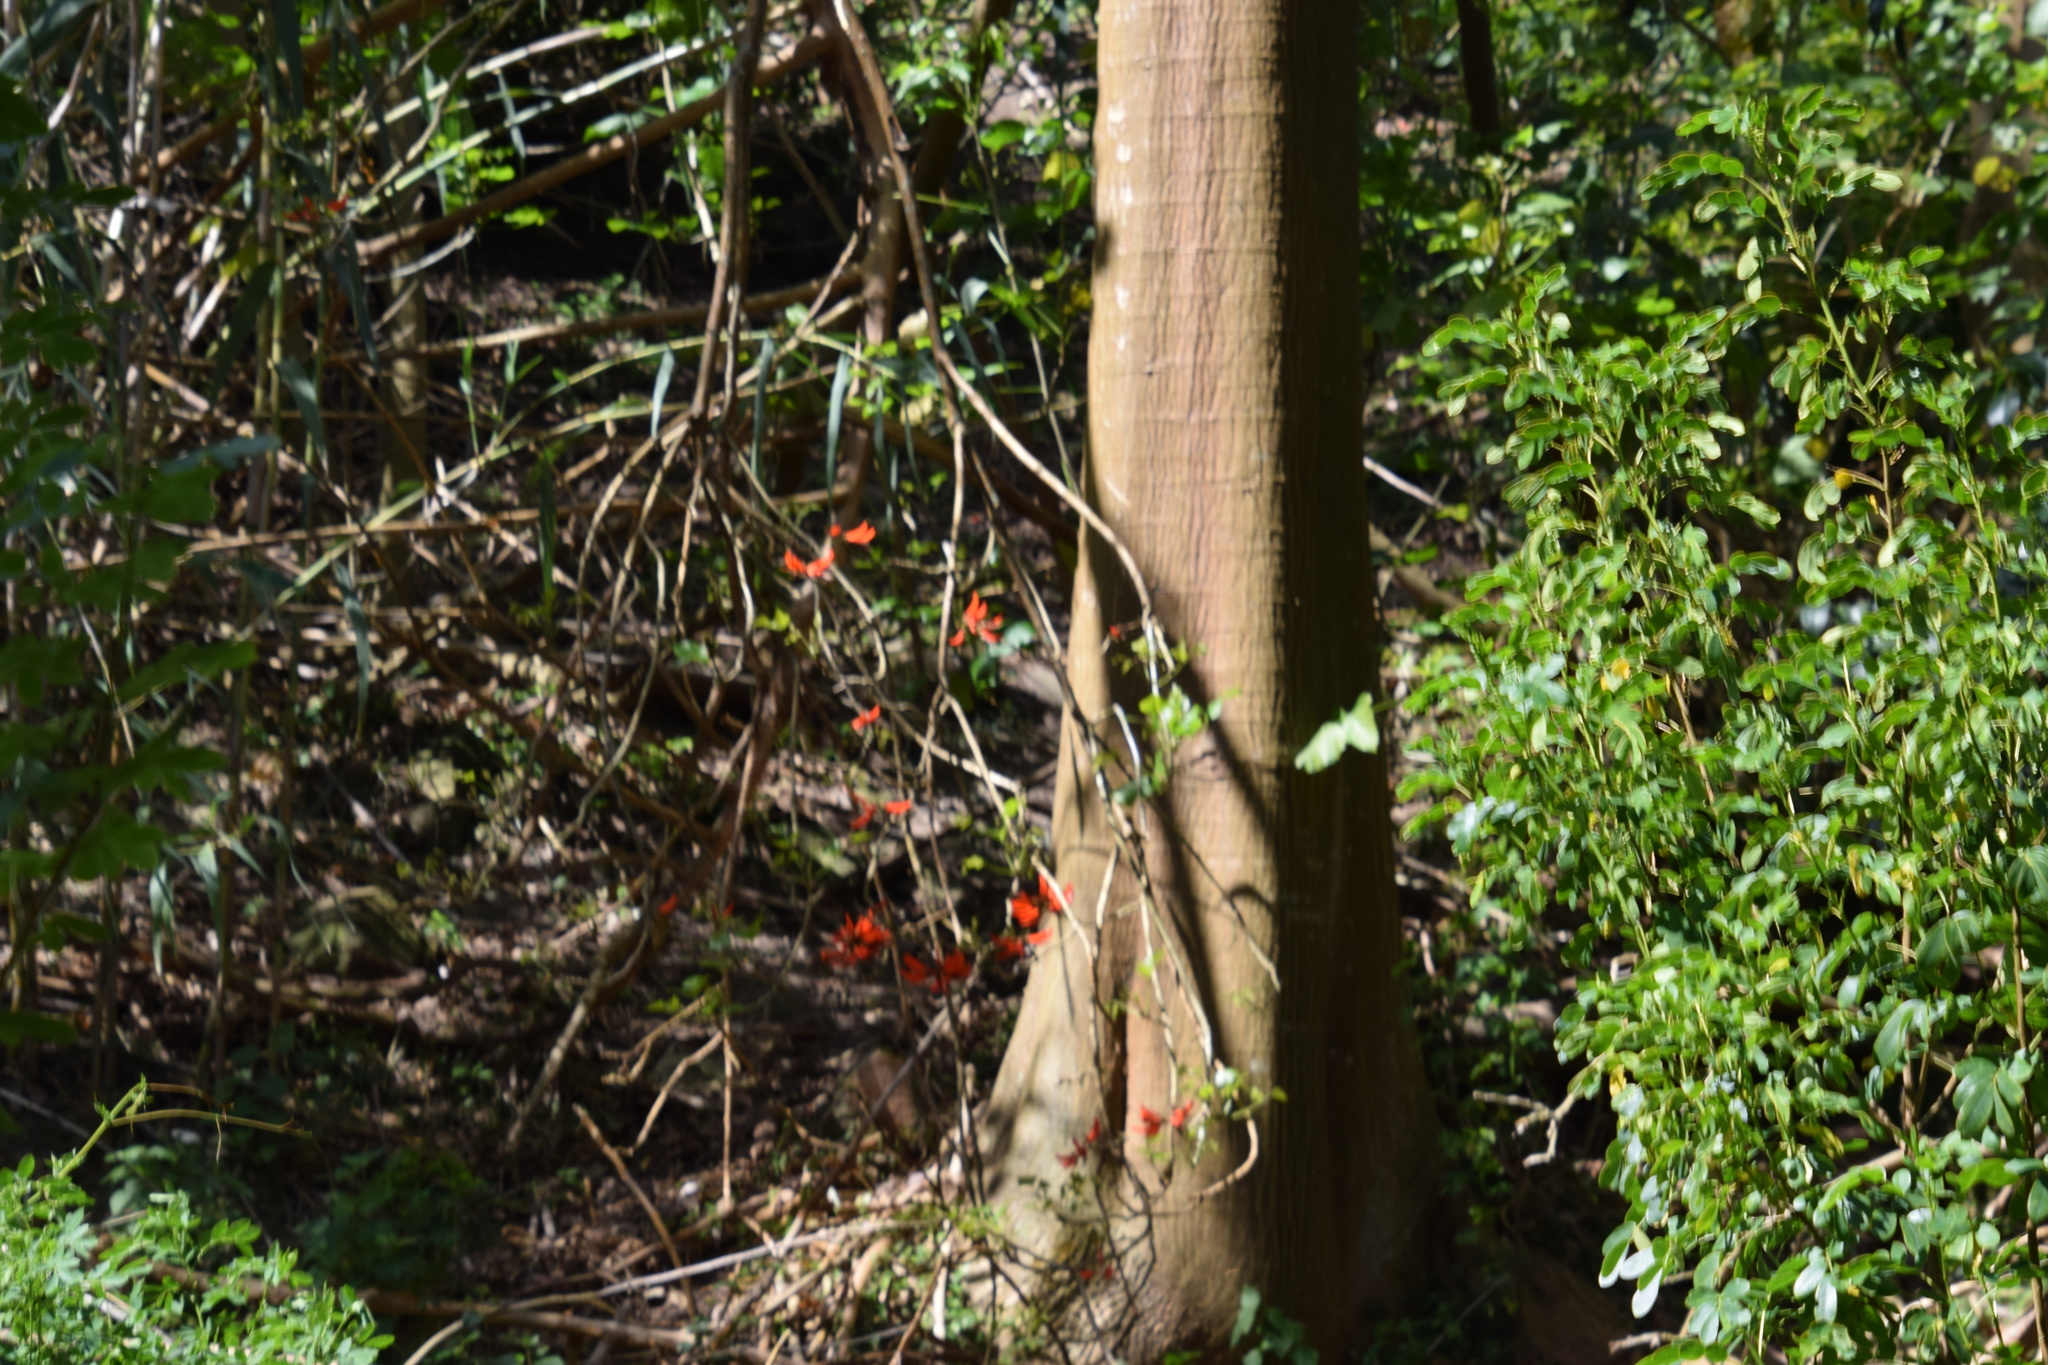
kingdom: Plantae
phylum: Tracheophyta
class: Magnoliopsida
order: Fabales
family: Fabaceae
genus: Erythrina
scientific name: Erythrina sykesii
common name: Coraltree
